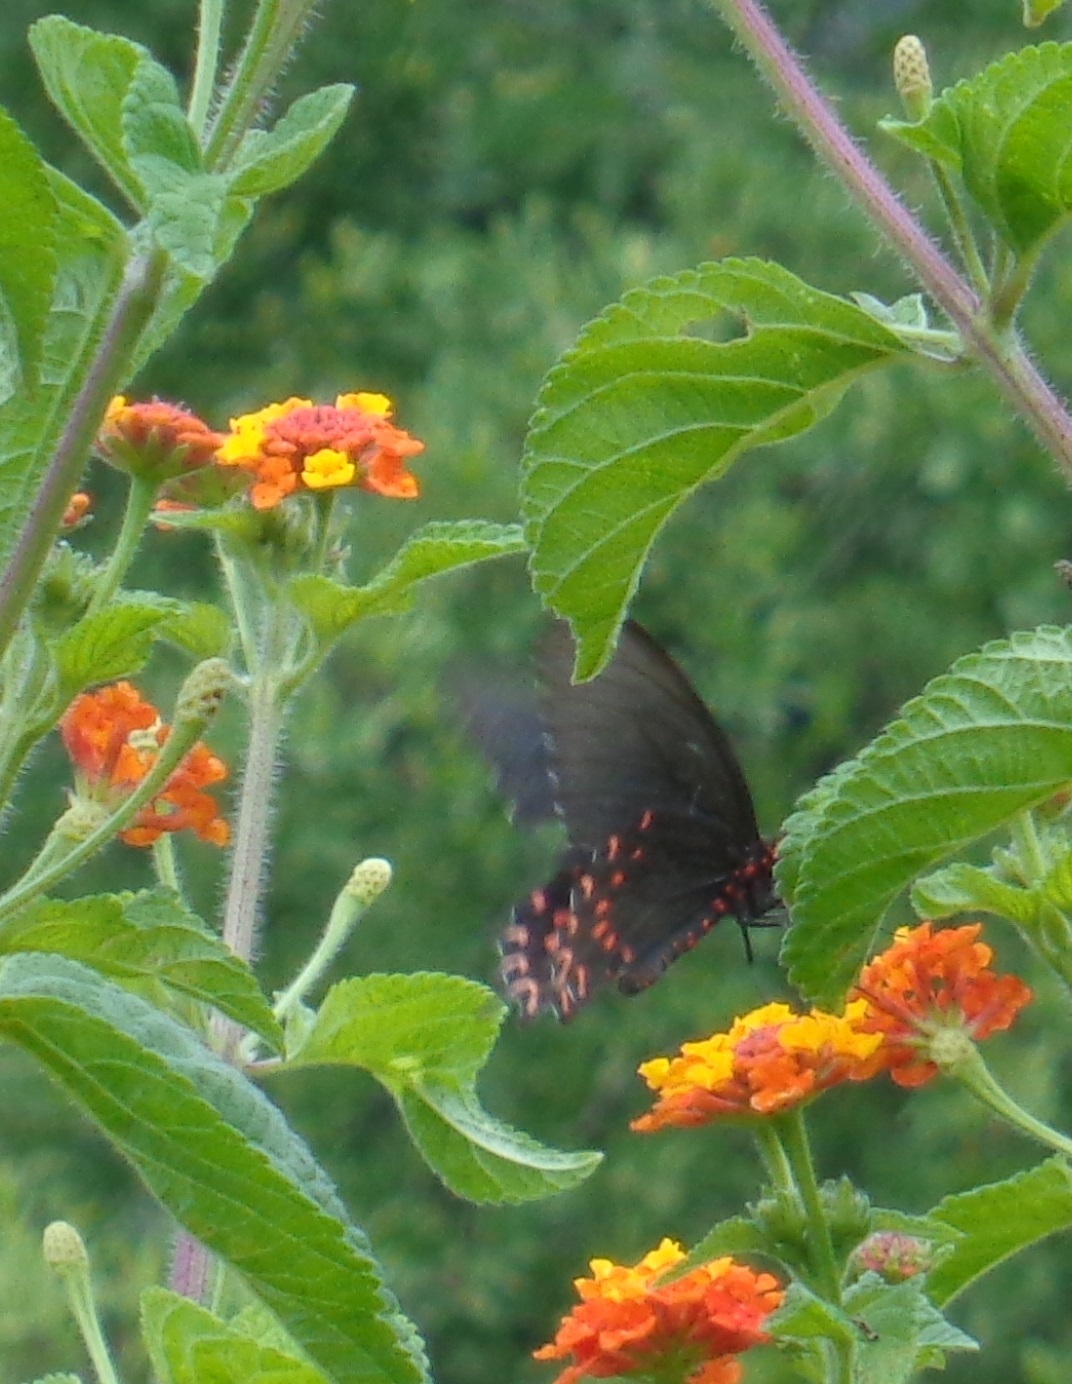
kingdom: Animalia
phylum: Arthropoda
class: Insecta
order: Lepidoptera
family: Papilionidae
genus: Parides
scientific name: Parides photinus
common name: Pink-spotted cattleheart
